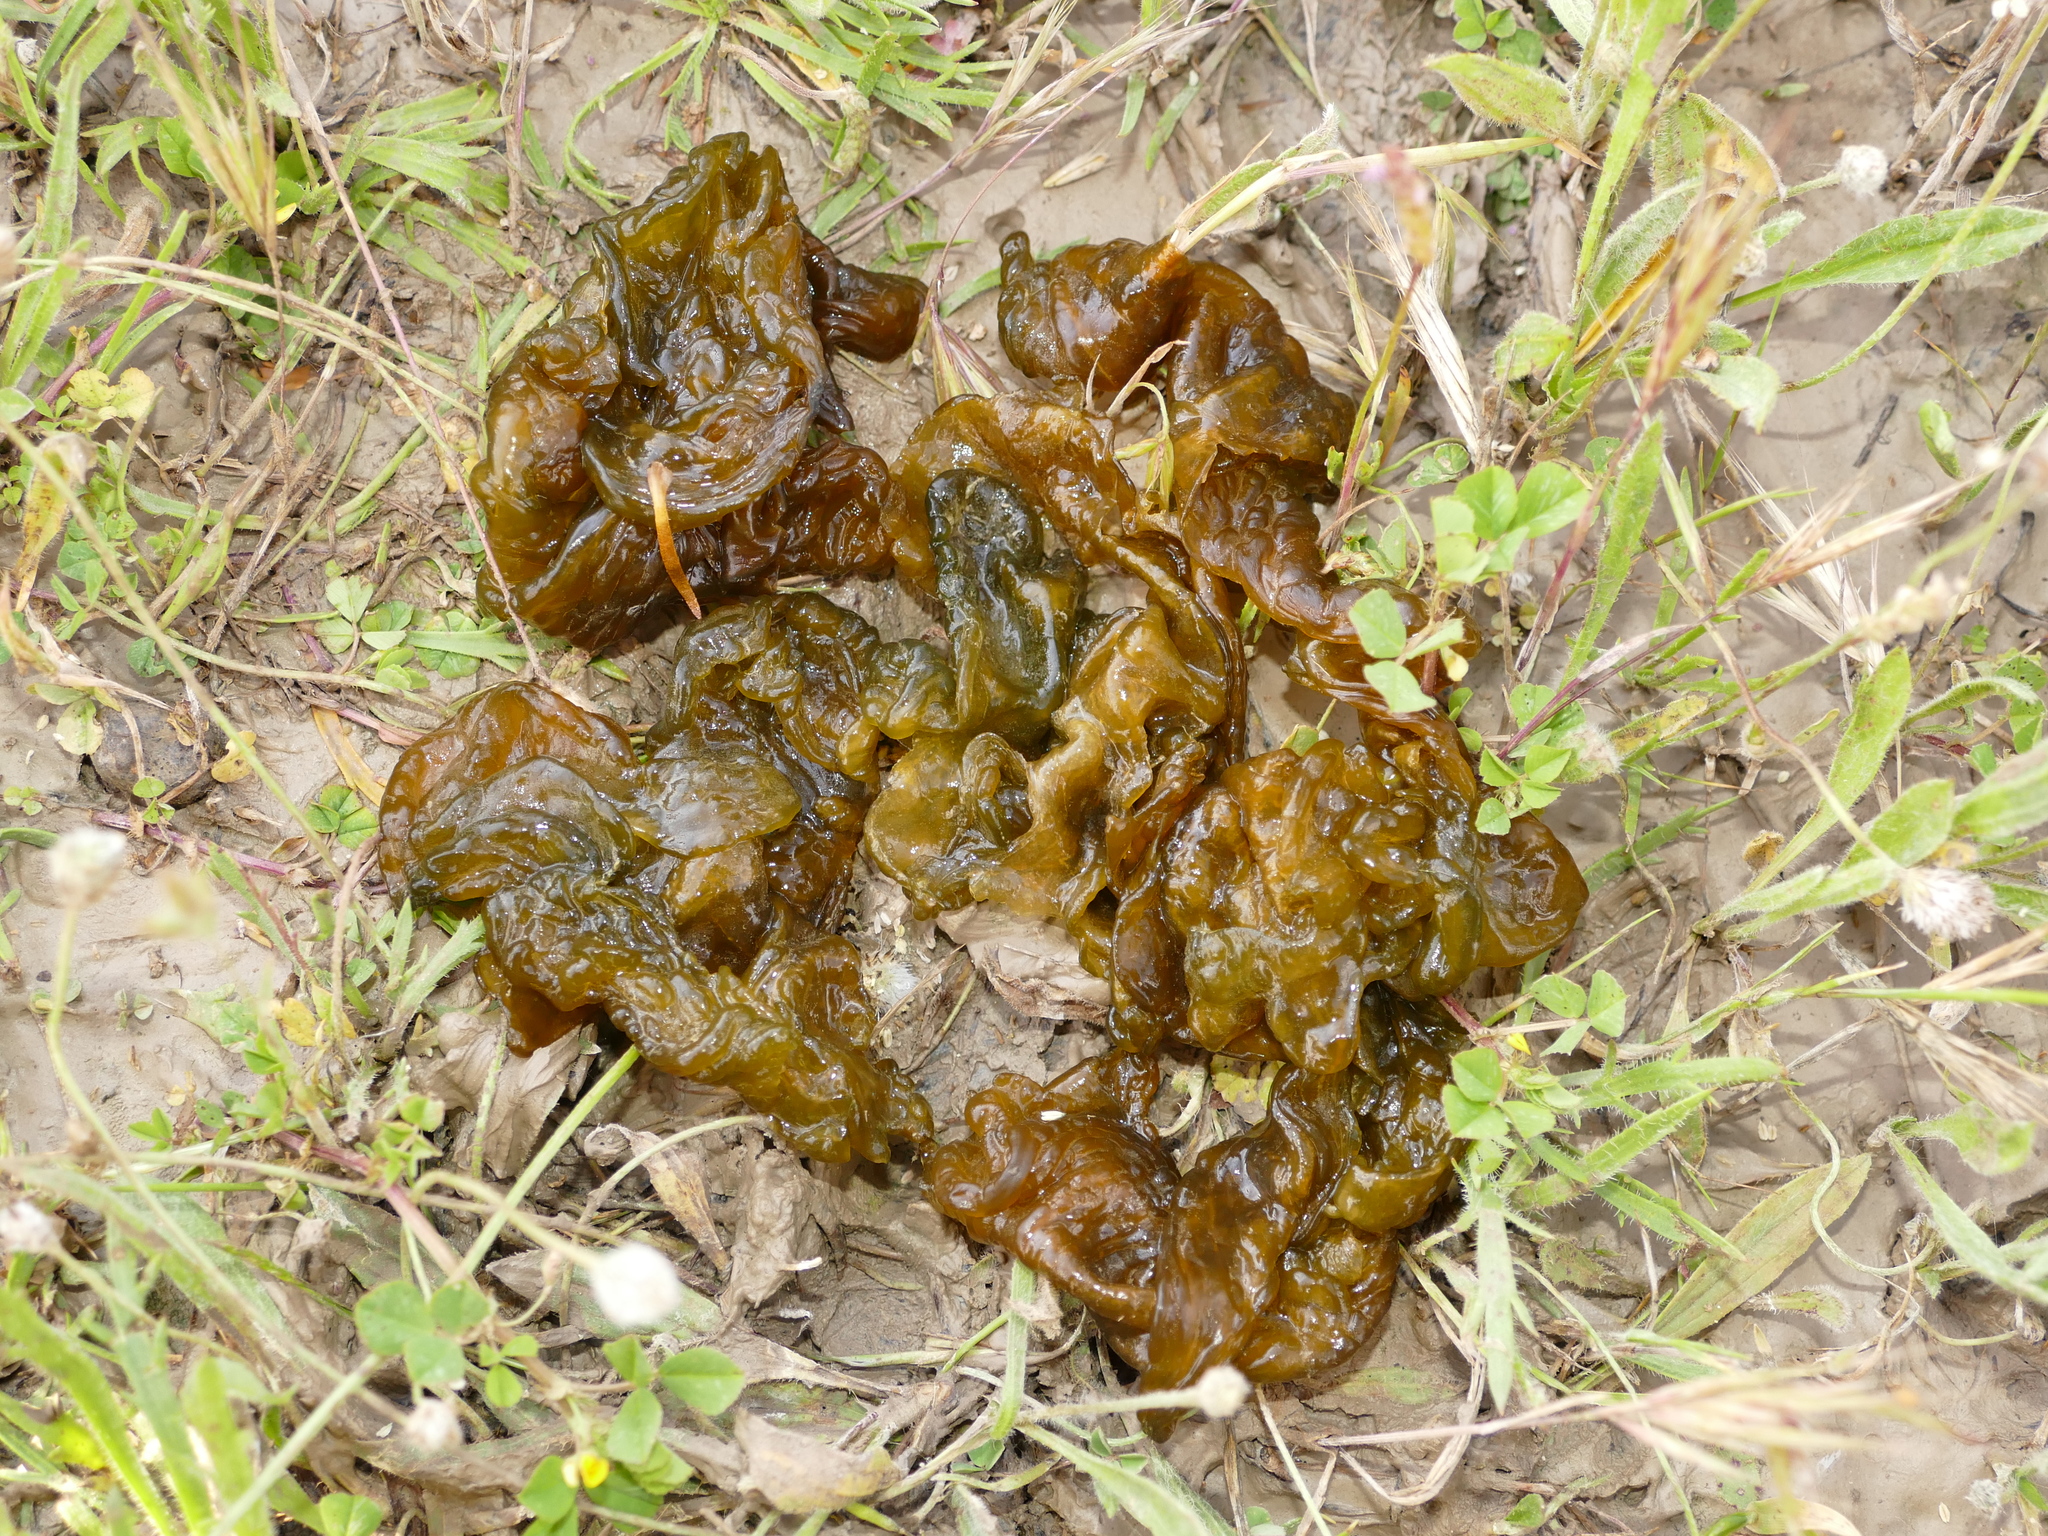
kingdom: Bacteria
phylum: Cyanobacteria
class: Cyanobacteriia
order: Cyanobacteriales
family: Nostocaceae
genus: Nostoc
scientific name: Nostoc commune
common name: Star jelly
